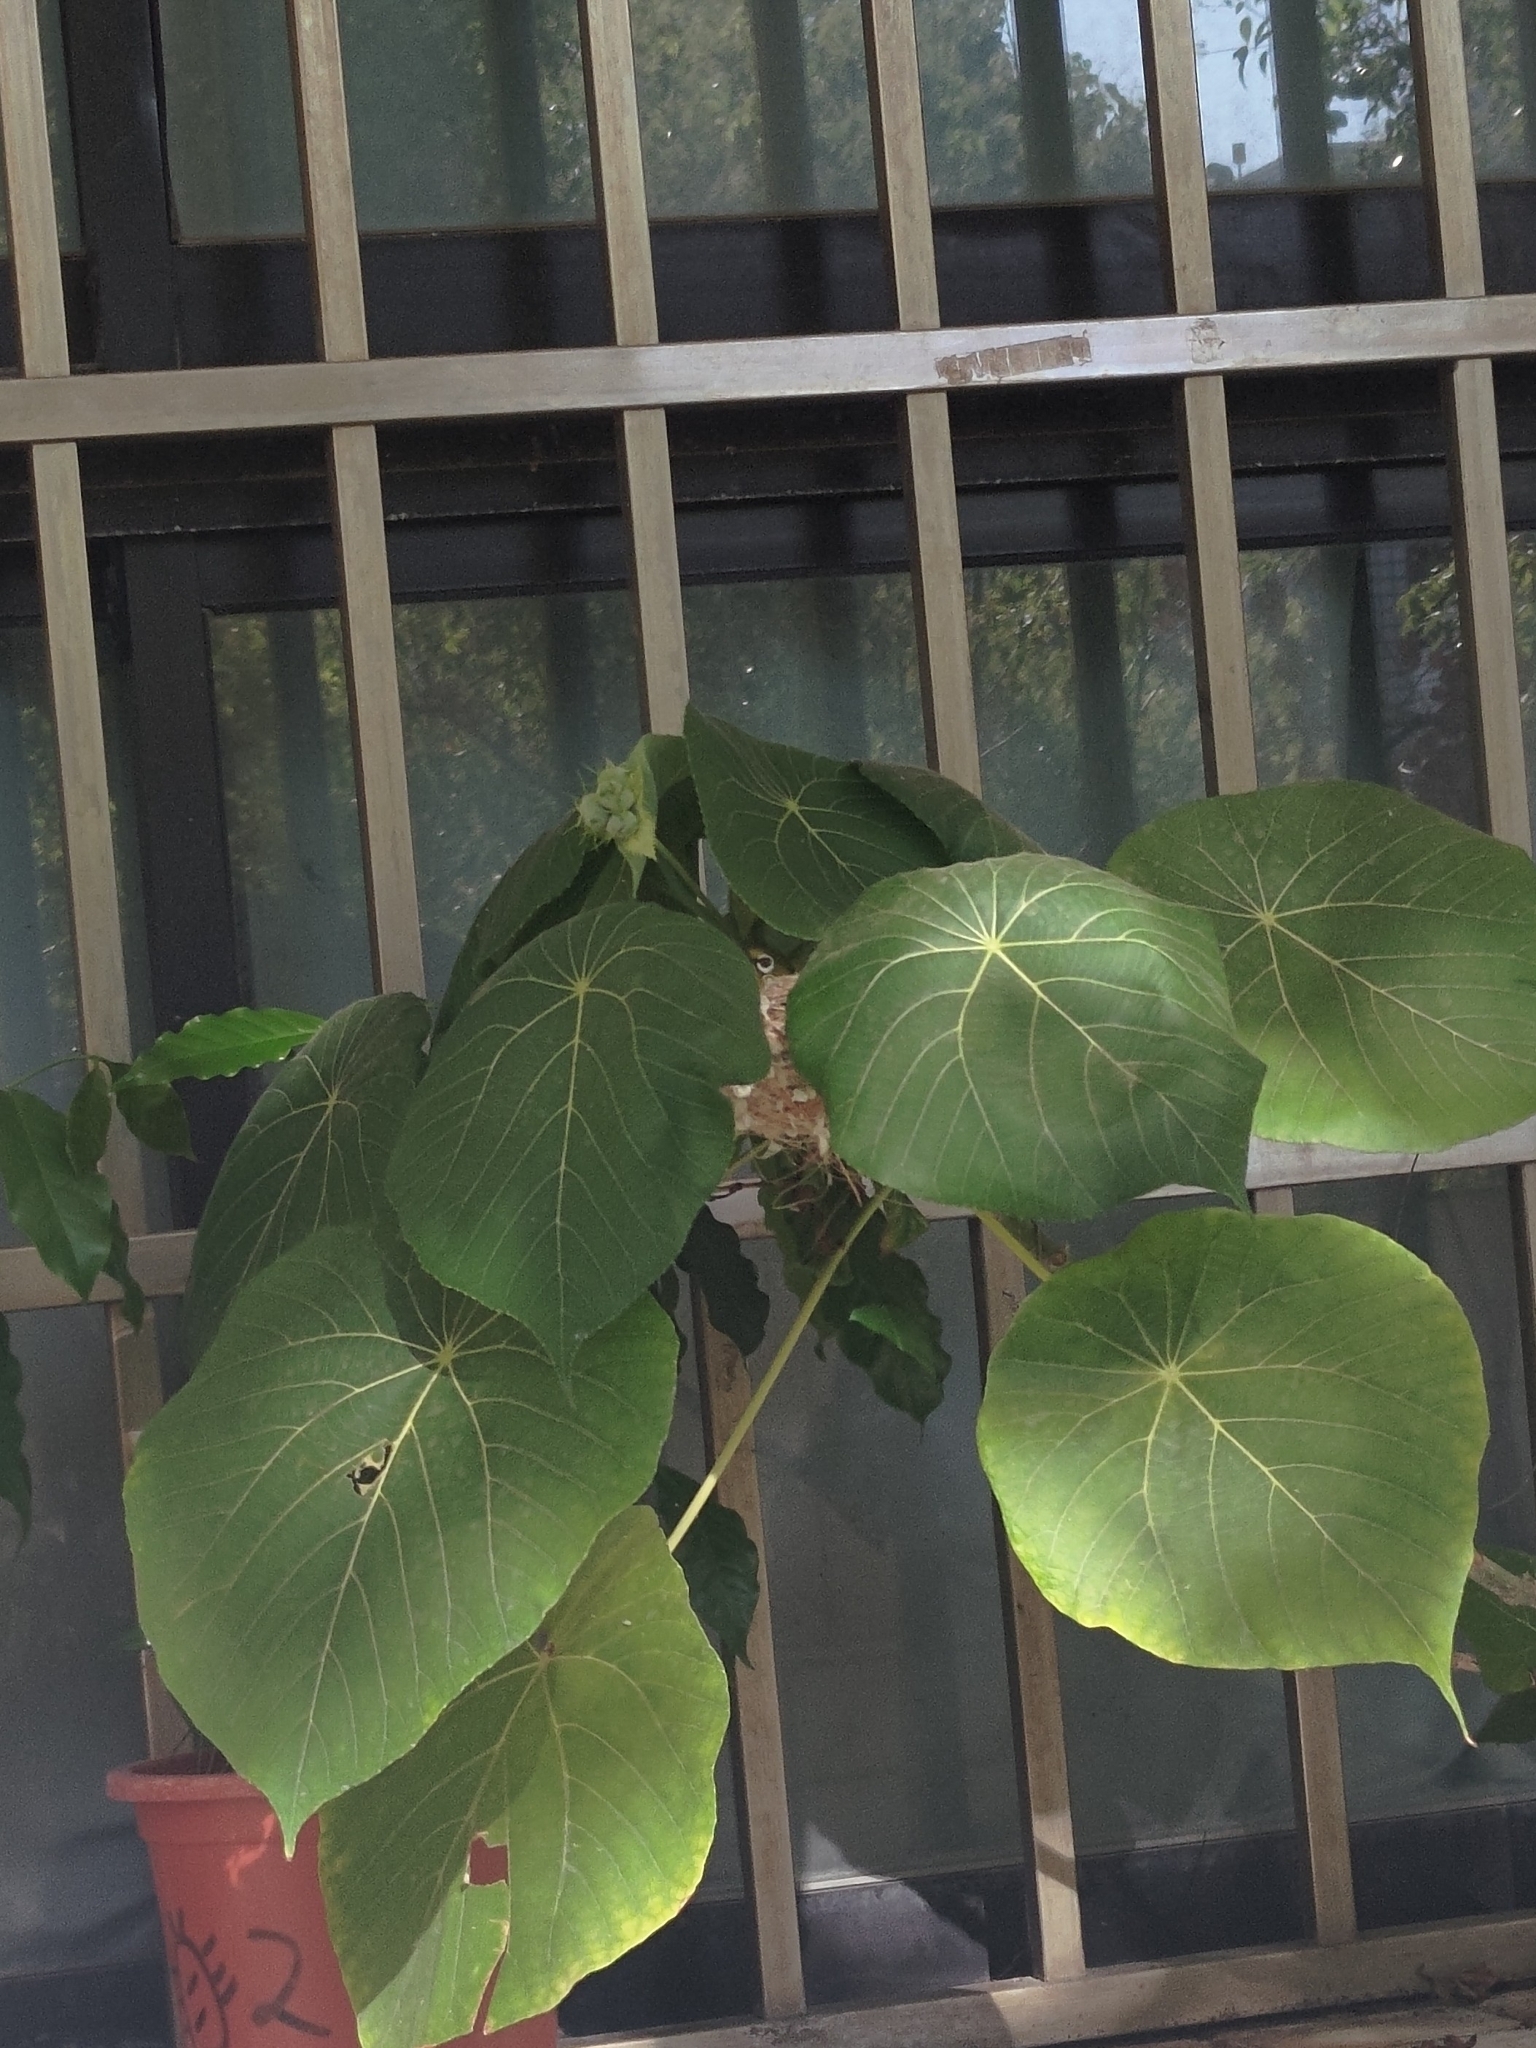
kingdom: Animalia
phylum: Chordata
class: Aves
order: Passeriformes
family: Zosteropidae
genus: Zosterops
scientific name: Zosterops simplex
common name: Swinhoe's white-eye
